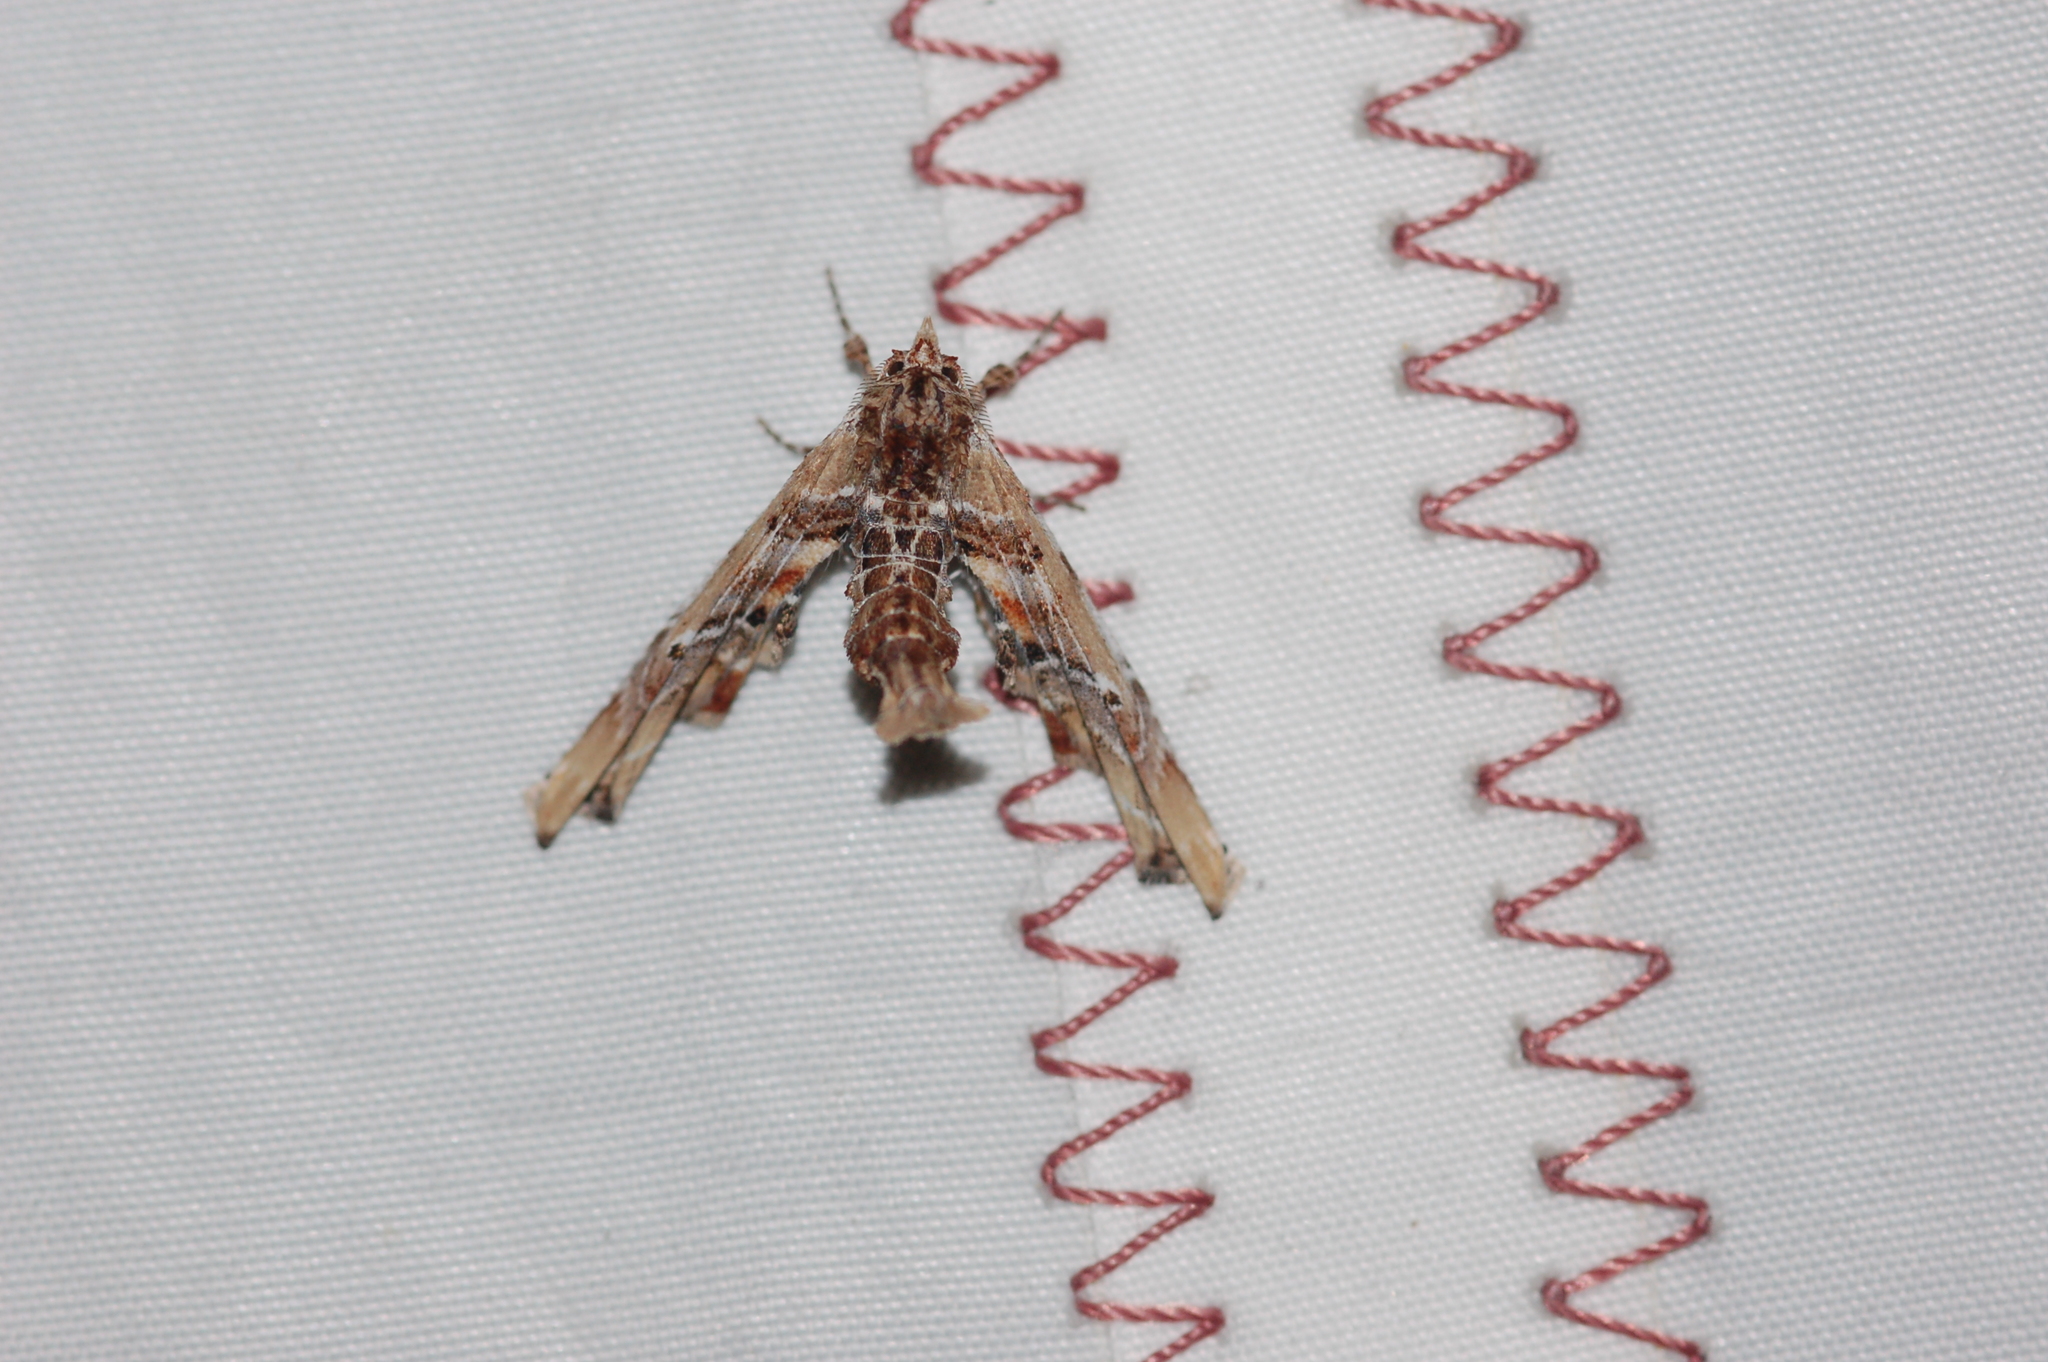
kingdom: Animalia
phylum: Arthropoda
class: Insecta
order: Lepidoptera
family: Euteliidae
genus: Marathyssa
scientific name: Marathyssa basalis
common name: Light marathyssa moth
